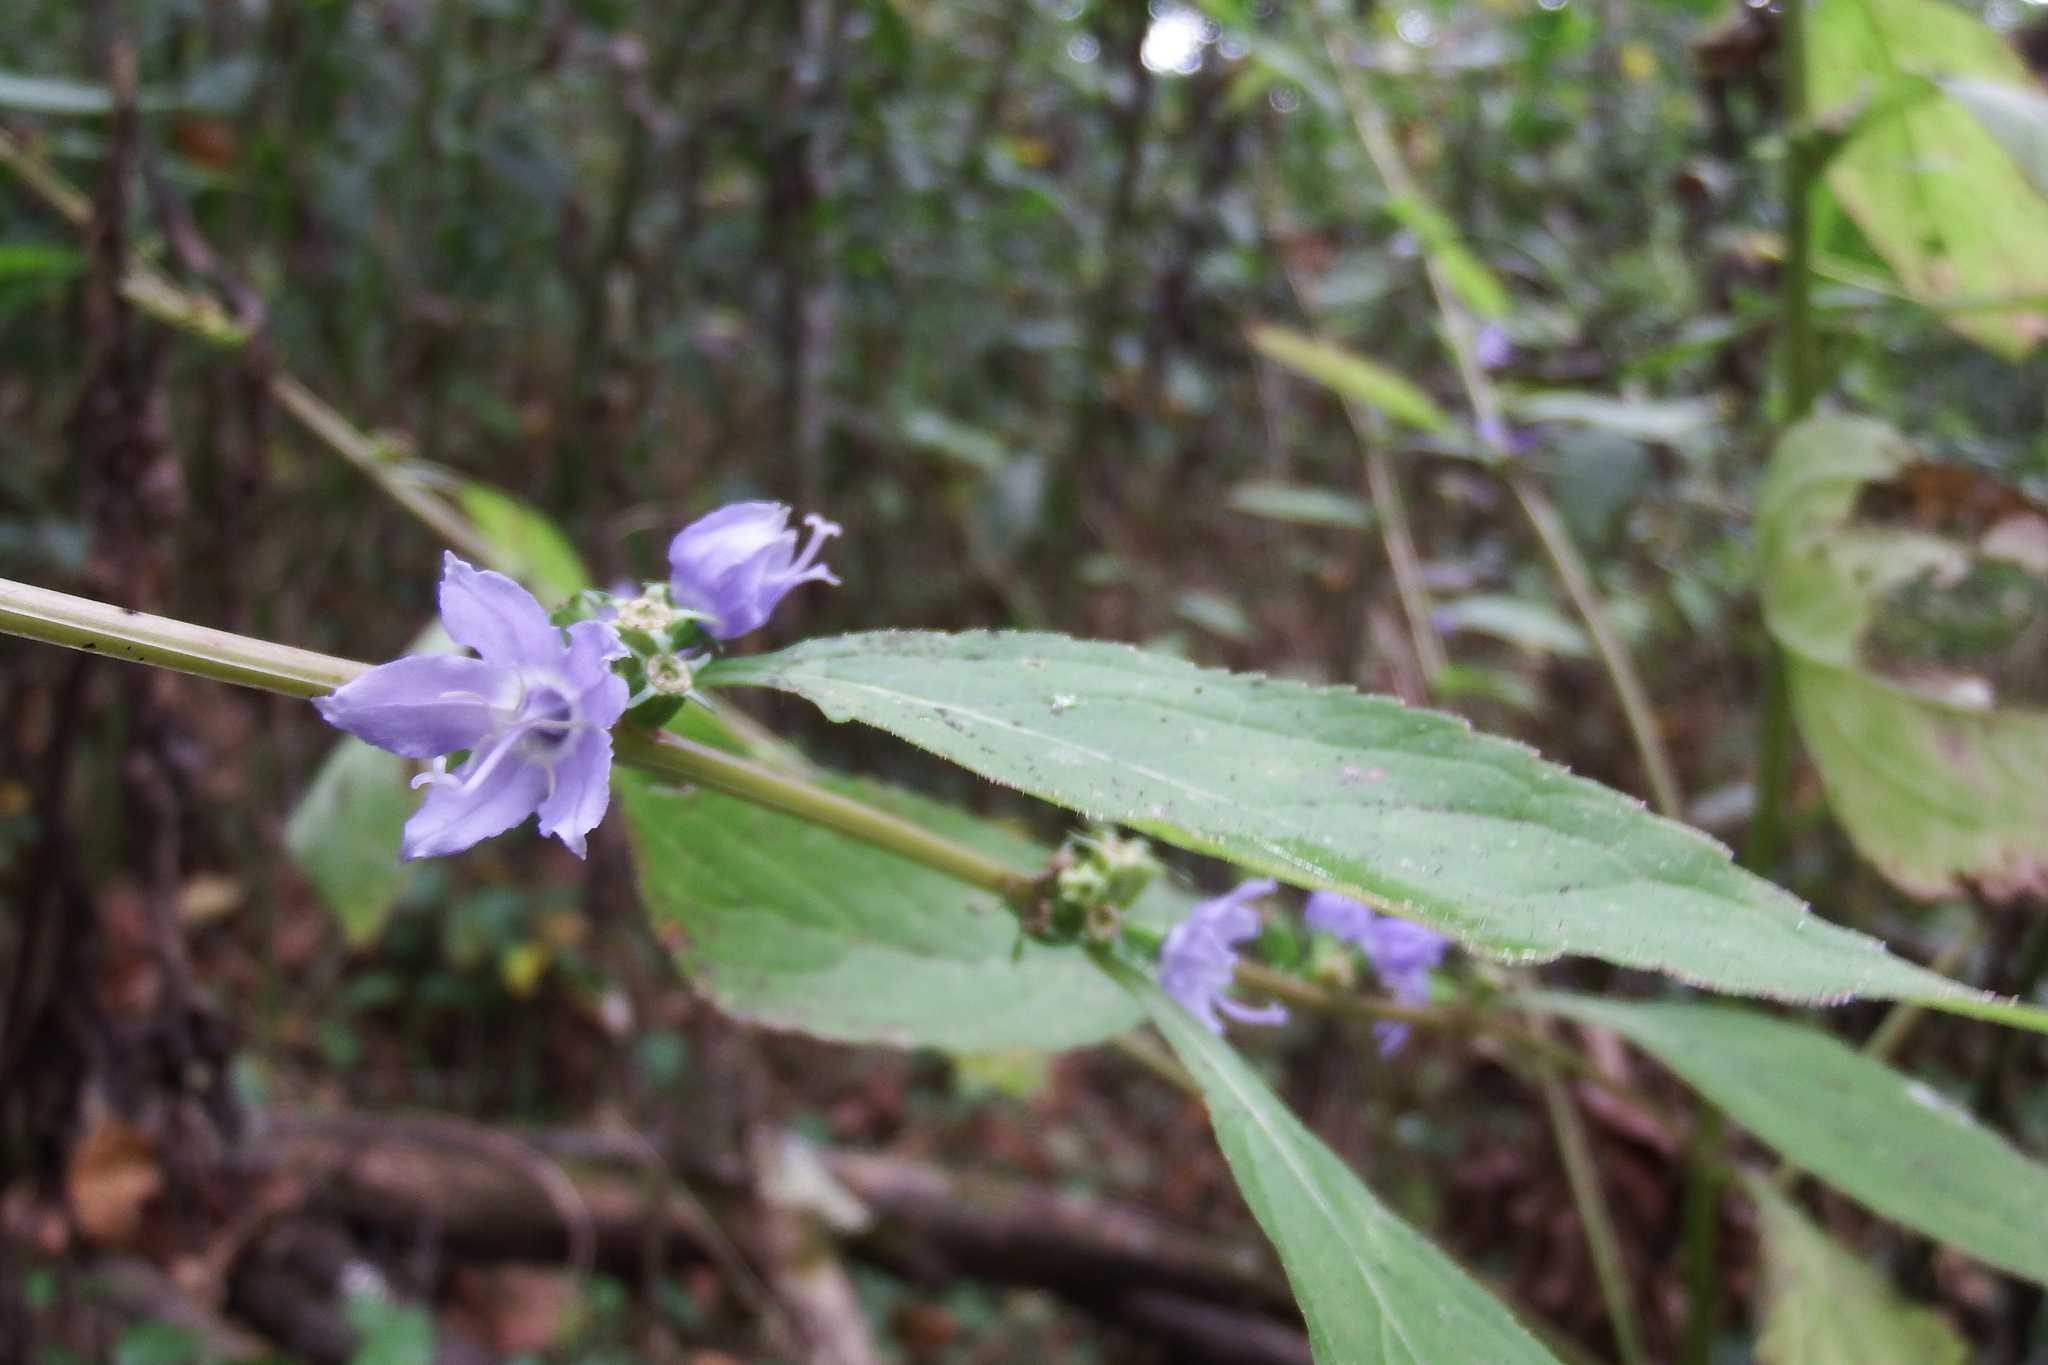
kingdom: Plantae
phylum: Tracheophyta
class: Magnoliopsida
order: Asterales
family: Campanulaceae
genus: Campanulastrum
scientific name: Campanulastrum americanum
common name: American bellflower
